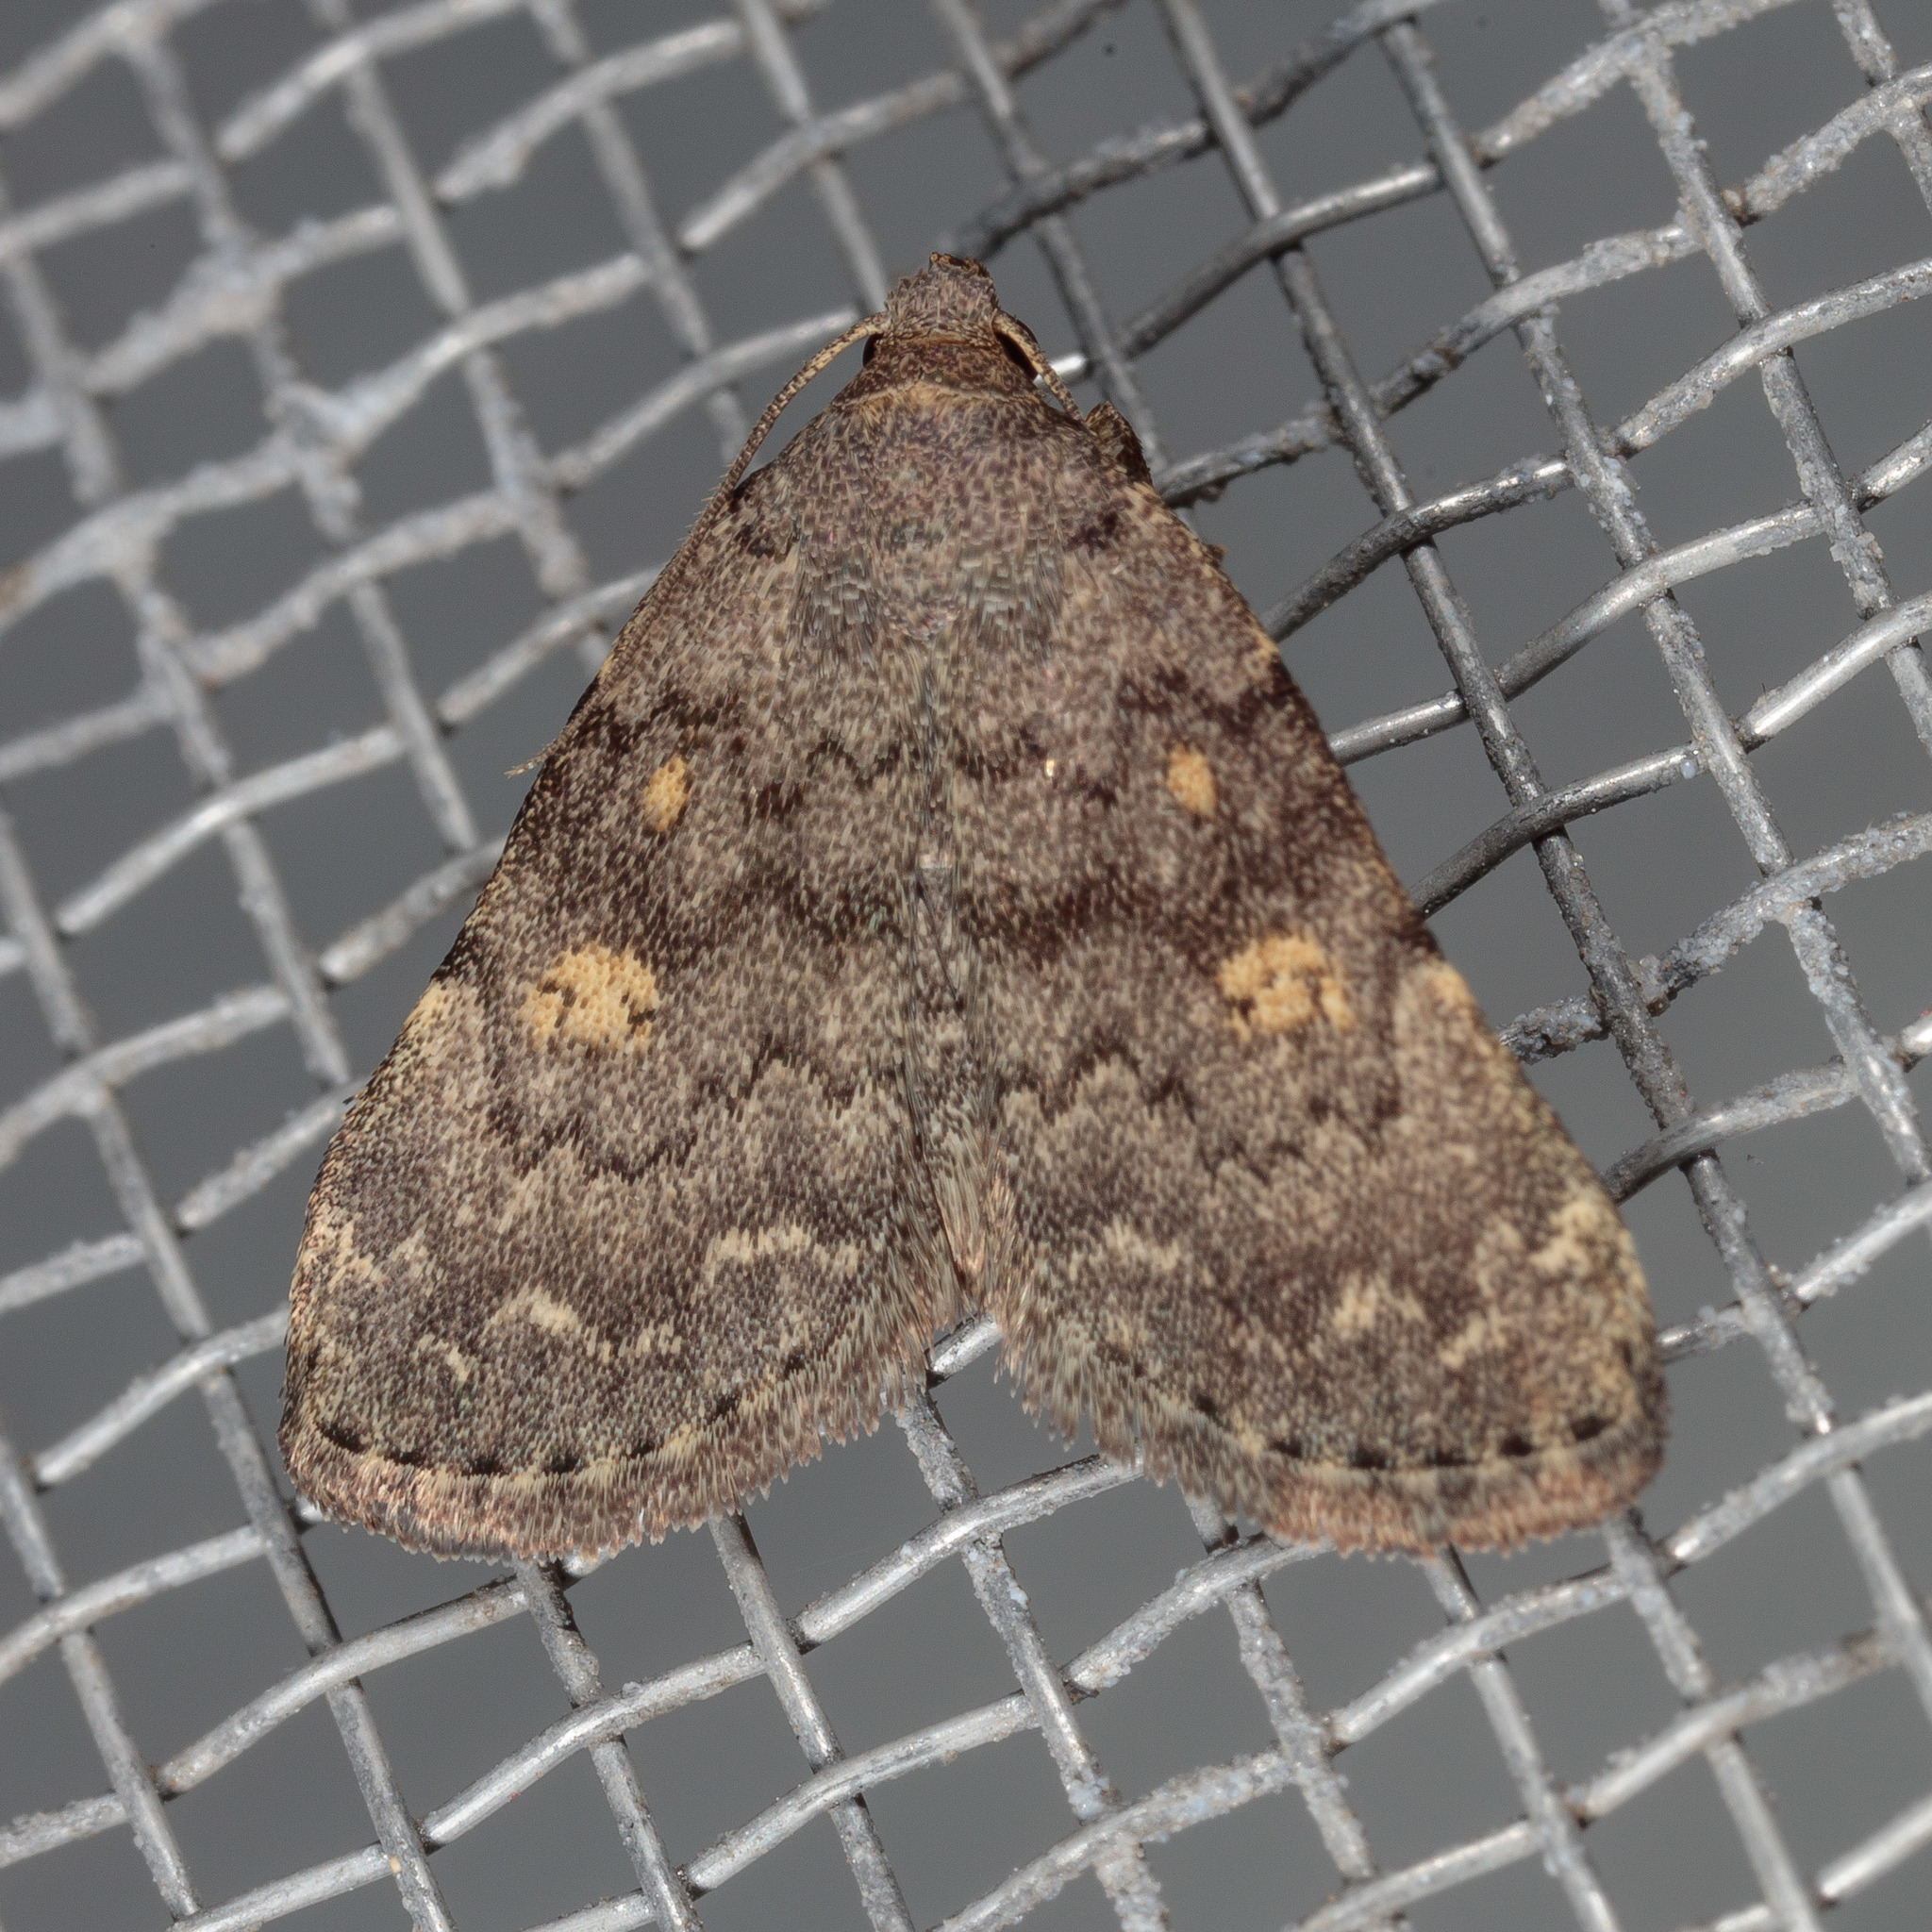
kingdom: Animalia
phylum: Arthropoda
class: Insecta
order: Lepidoptera
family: Erebidae
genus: Idia
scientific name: Idia aemula
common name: Common idia moth
